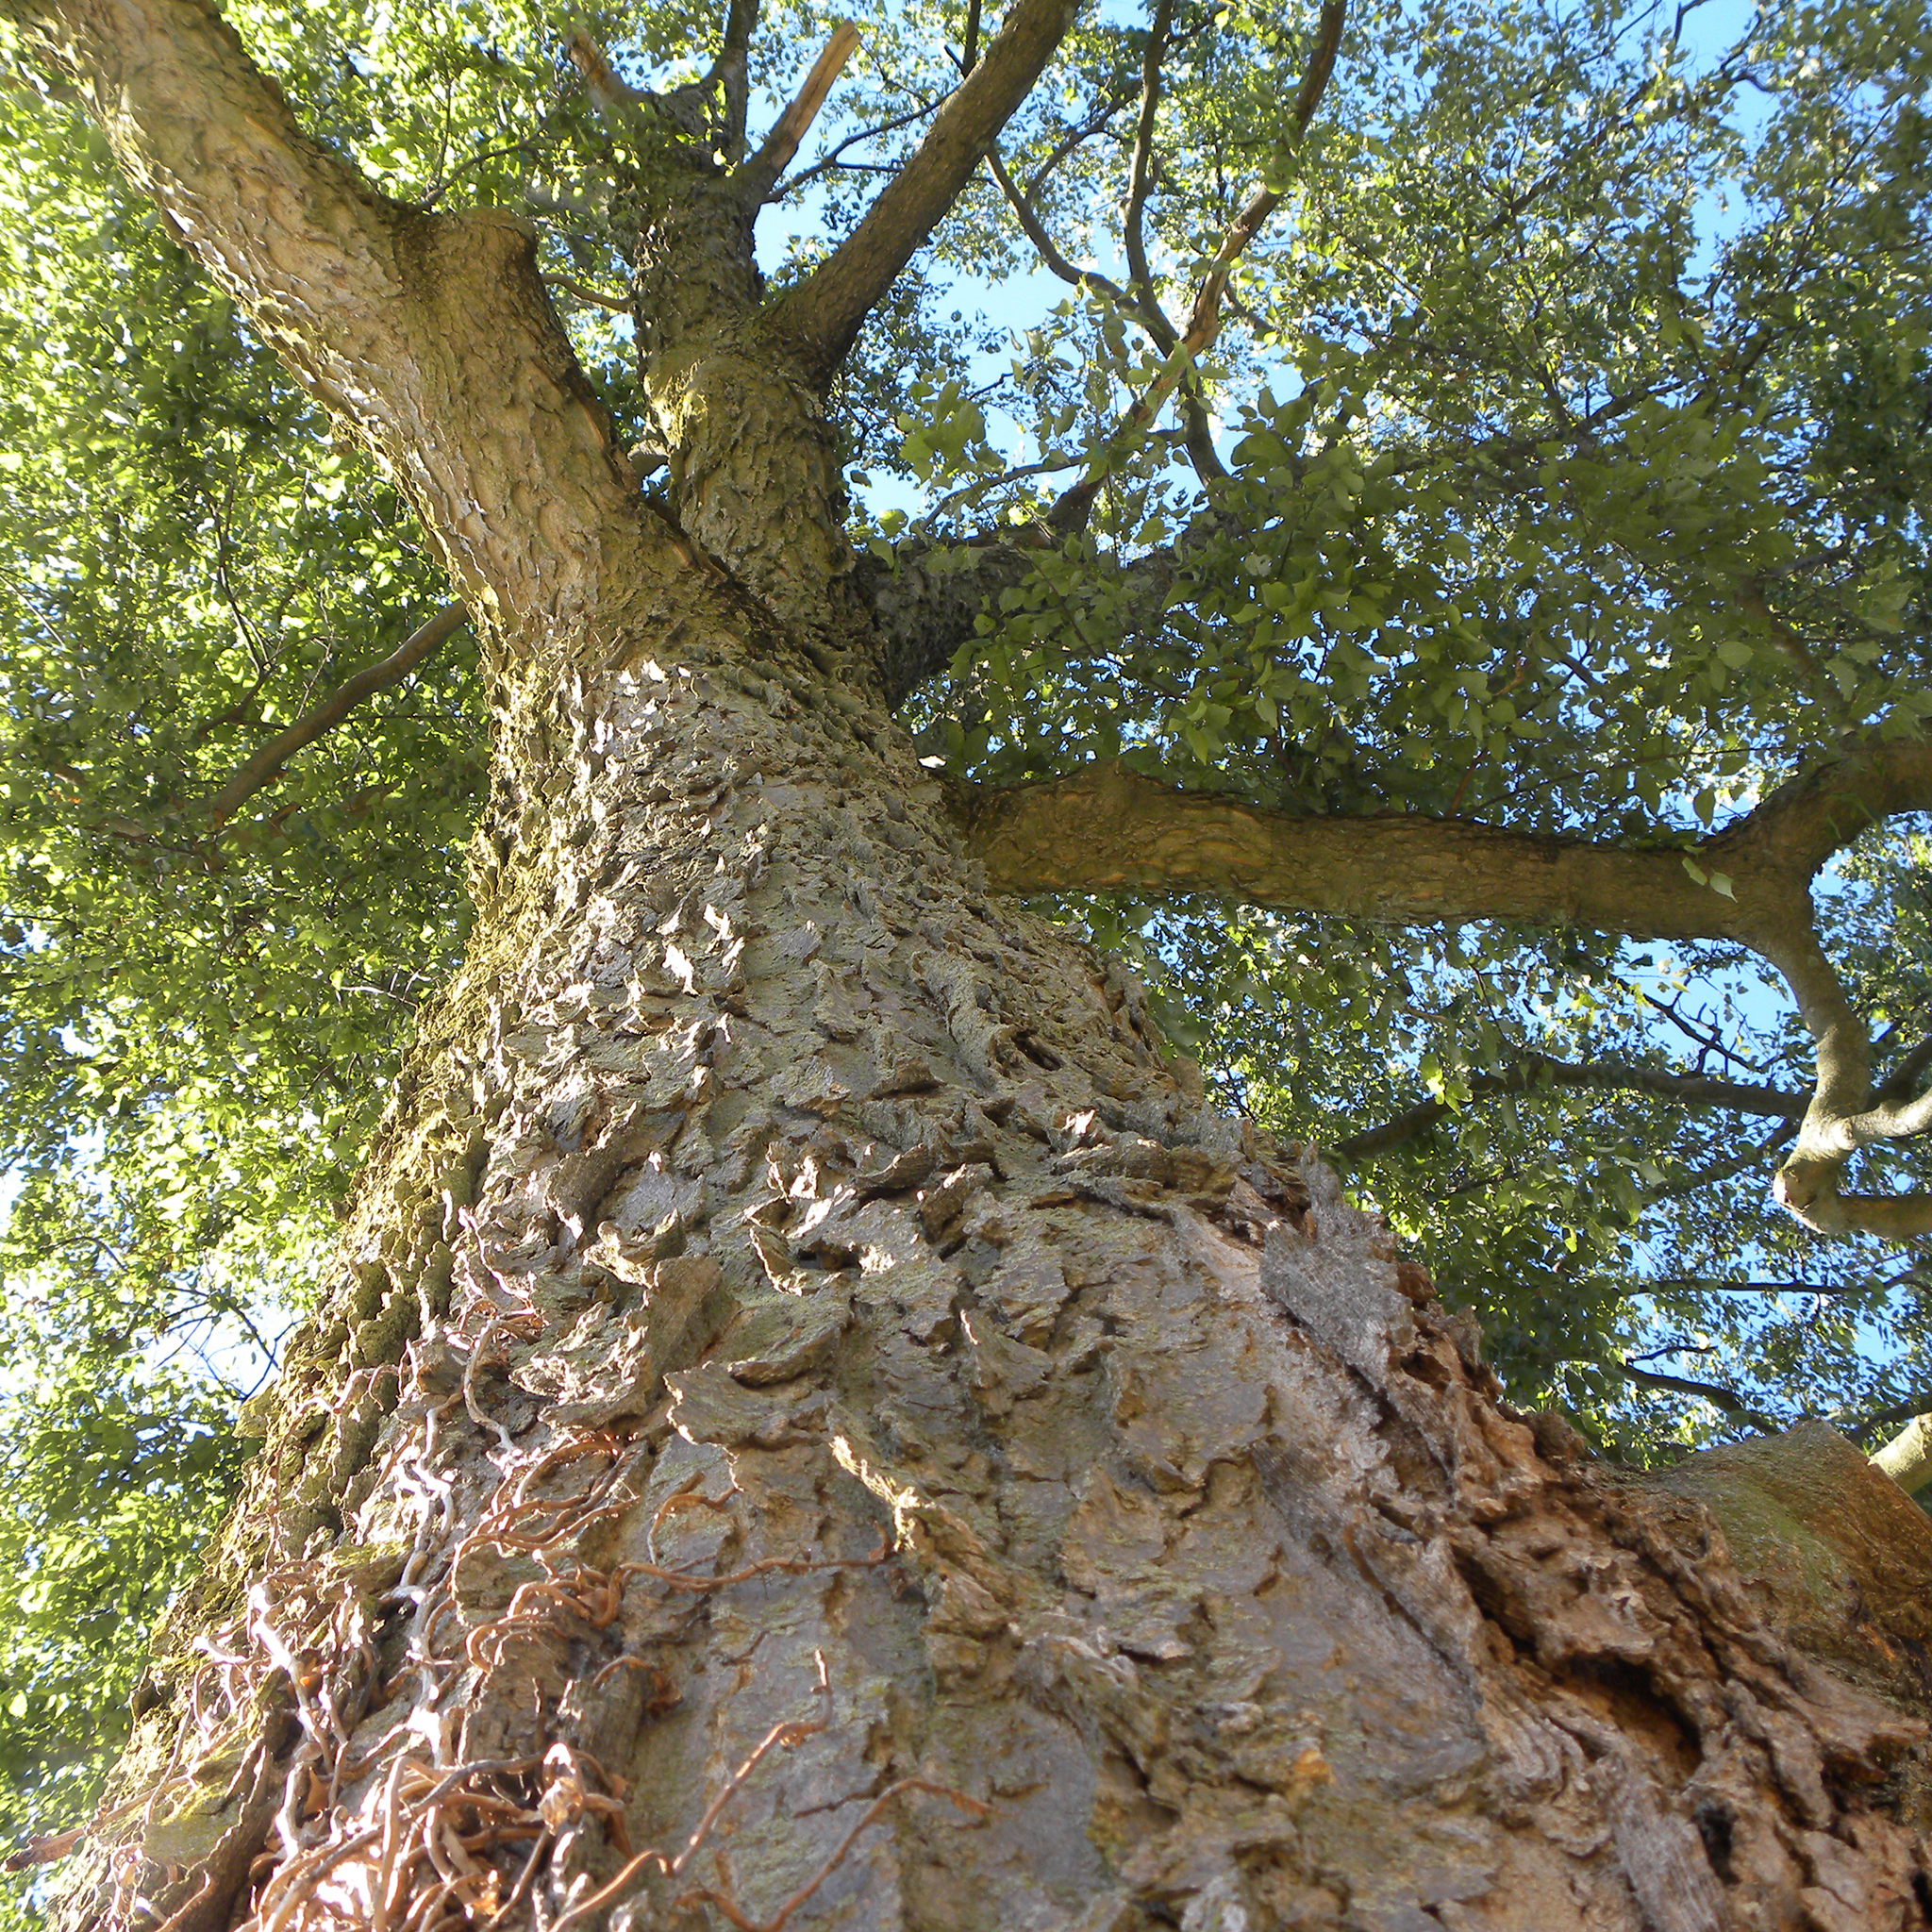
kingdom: Plantae
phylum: Tracheophyta
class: Magnoliopsida
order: Rosales
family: Cannabaceae
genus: Celtis
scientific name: Celtis occidentalis
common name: Common hackberry
